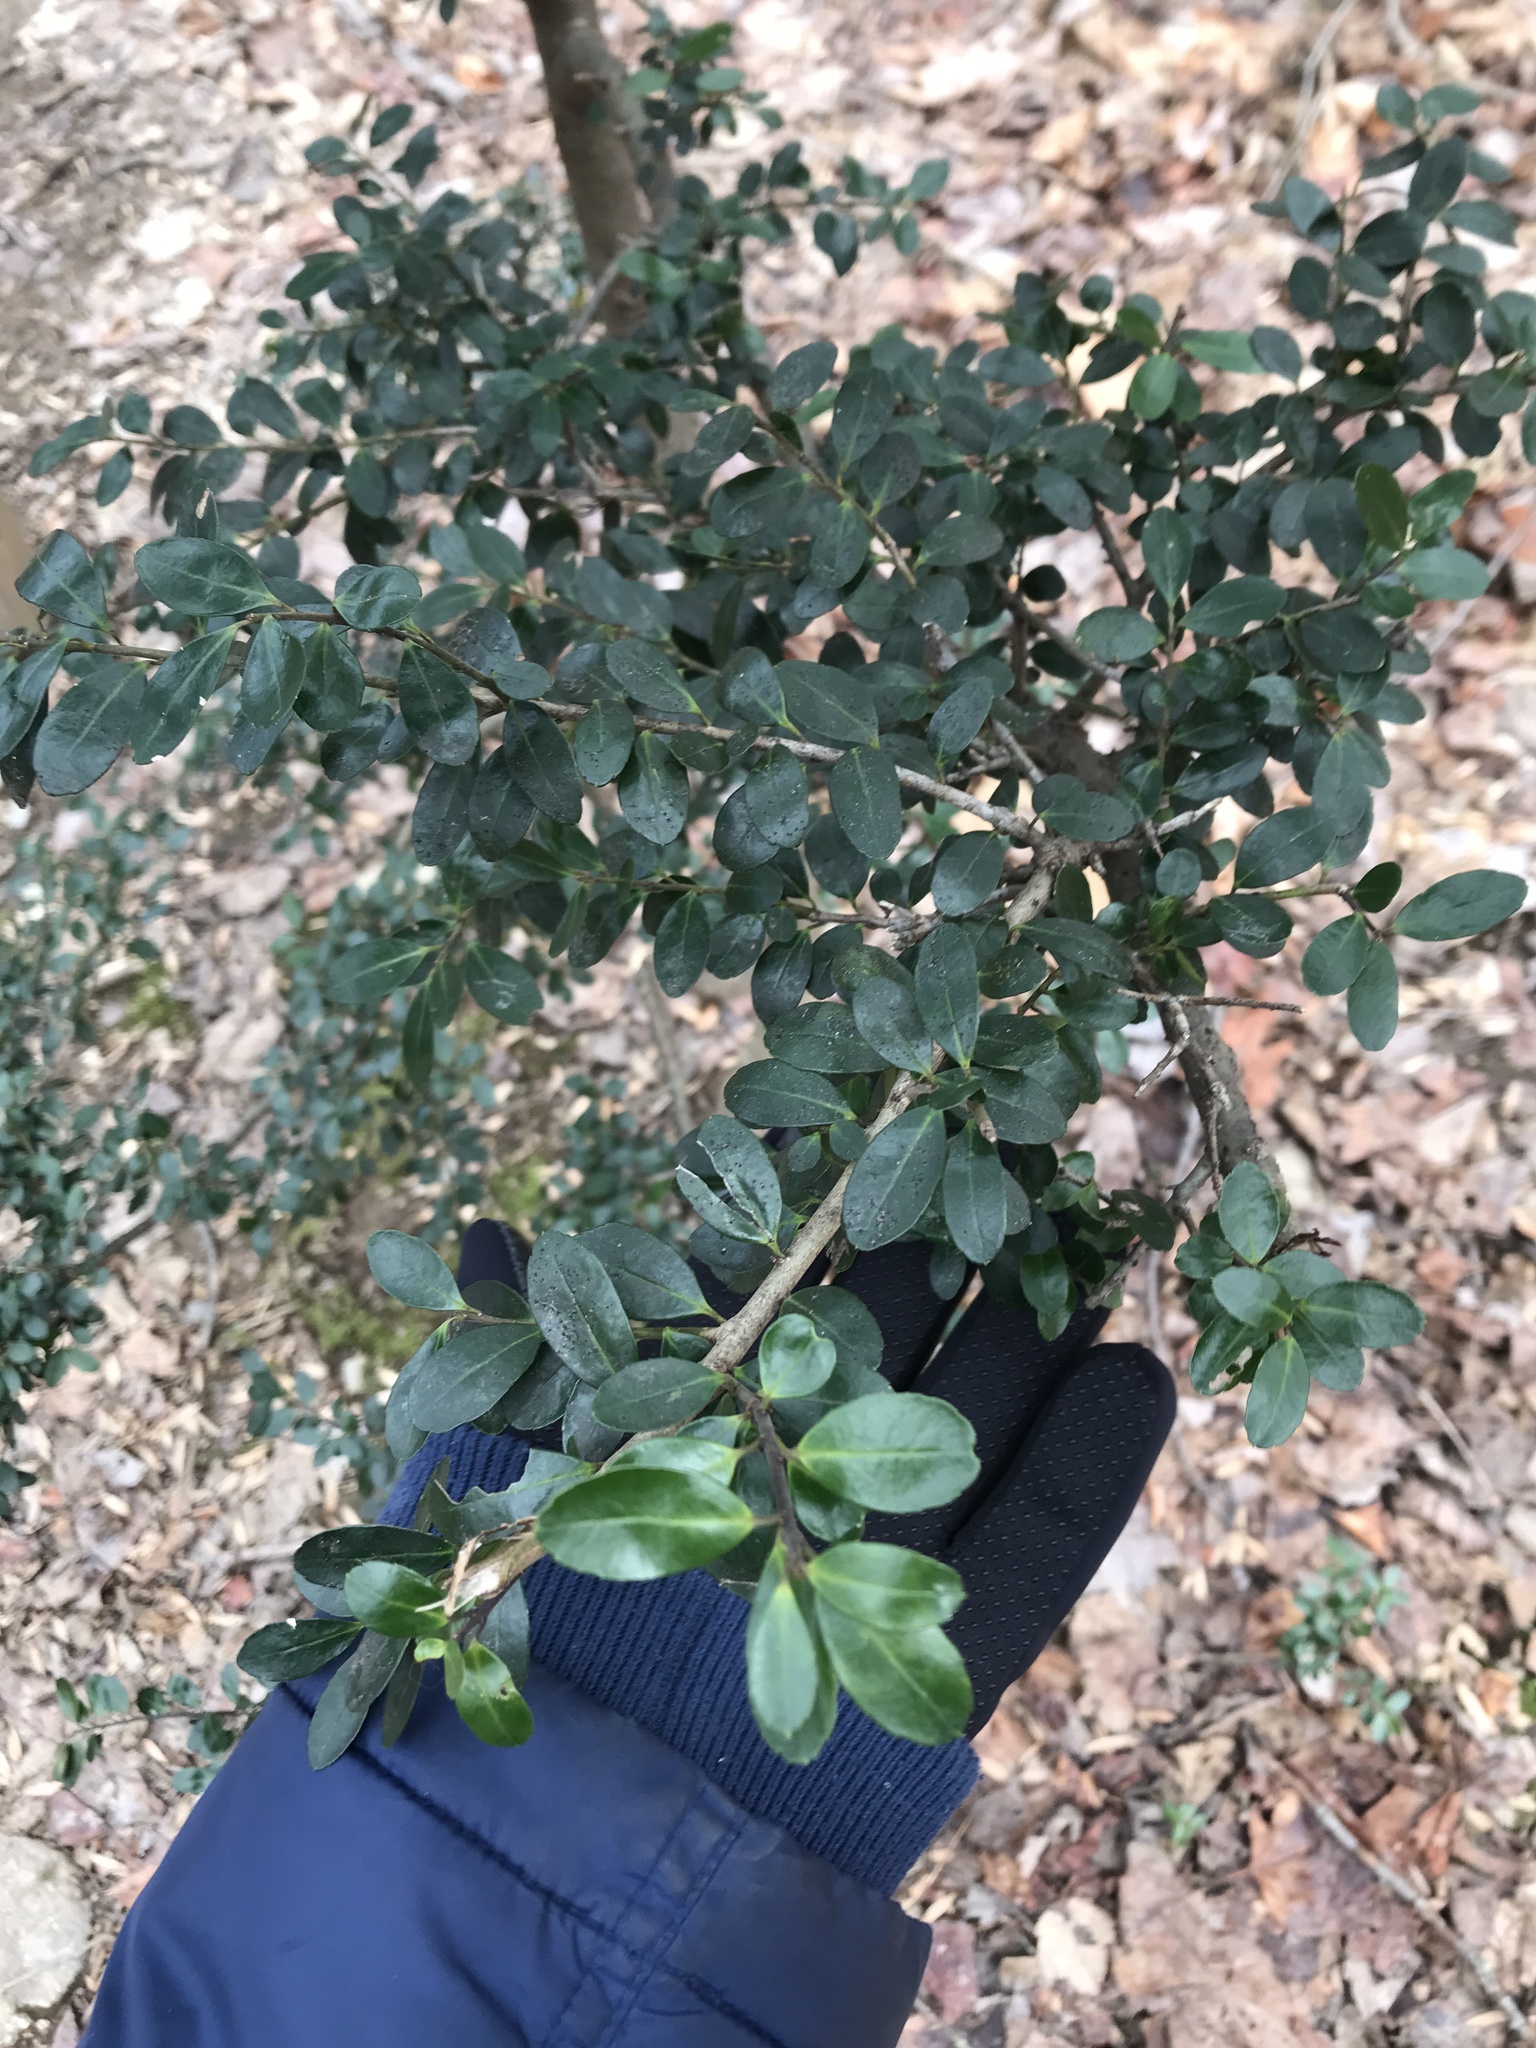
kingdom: Plantae
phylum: Tracheophyta
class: Magnoliopsida
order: Aquifoliales
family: Aquifoliaceae
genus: Ilex
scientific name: Ilex crenata
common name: Japanese holly
